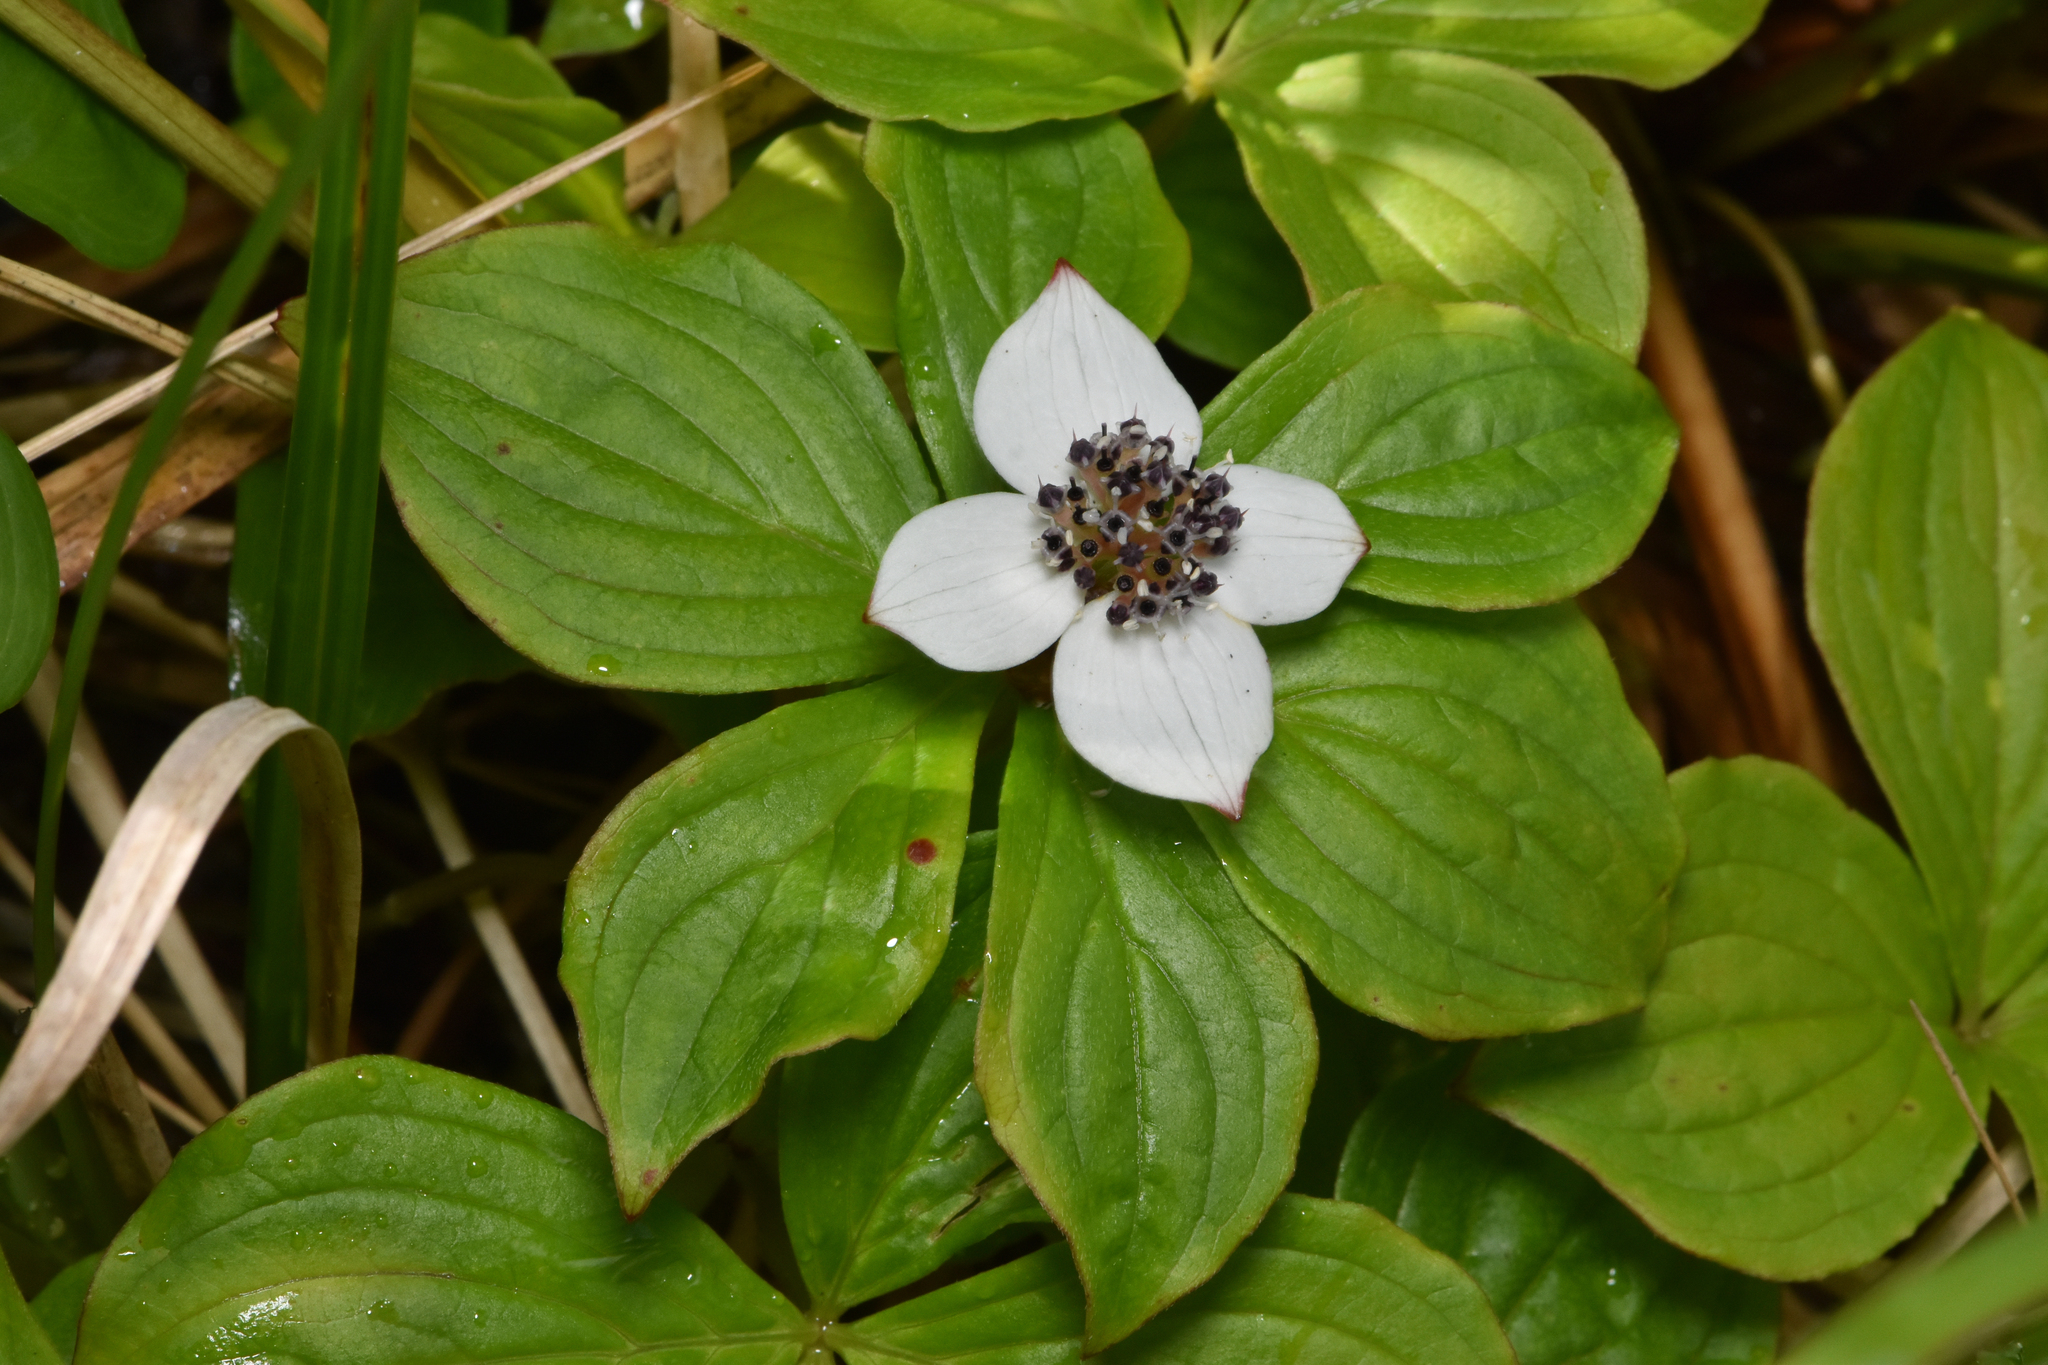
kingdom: Plantae
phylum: Tracheophyta
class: Magnoliopsida
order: Cornales
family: Cornaceae
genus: Cornus
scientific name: Cornus unalaschkensis
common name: Alaska bunchberry
